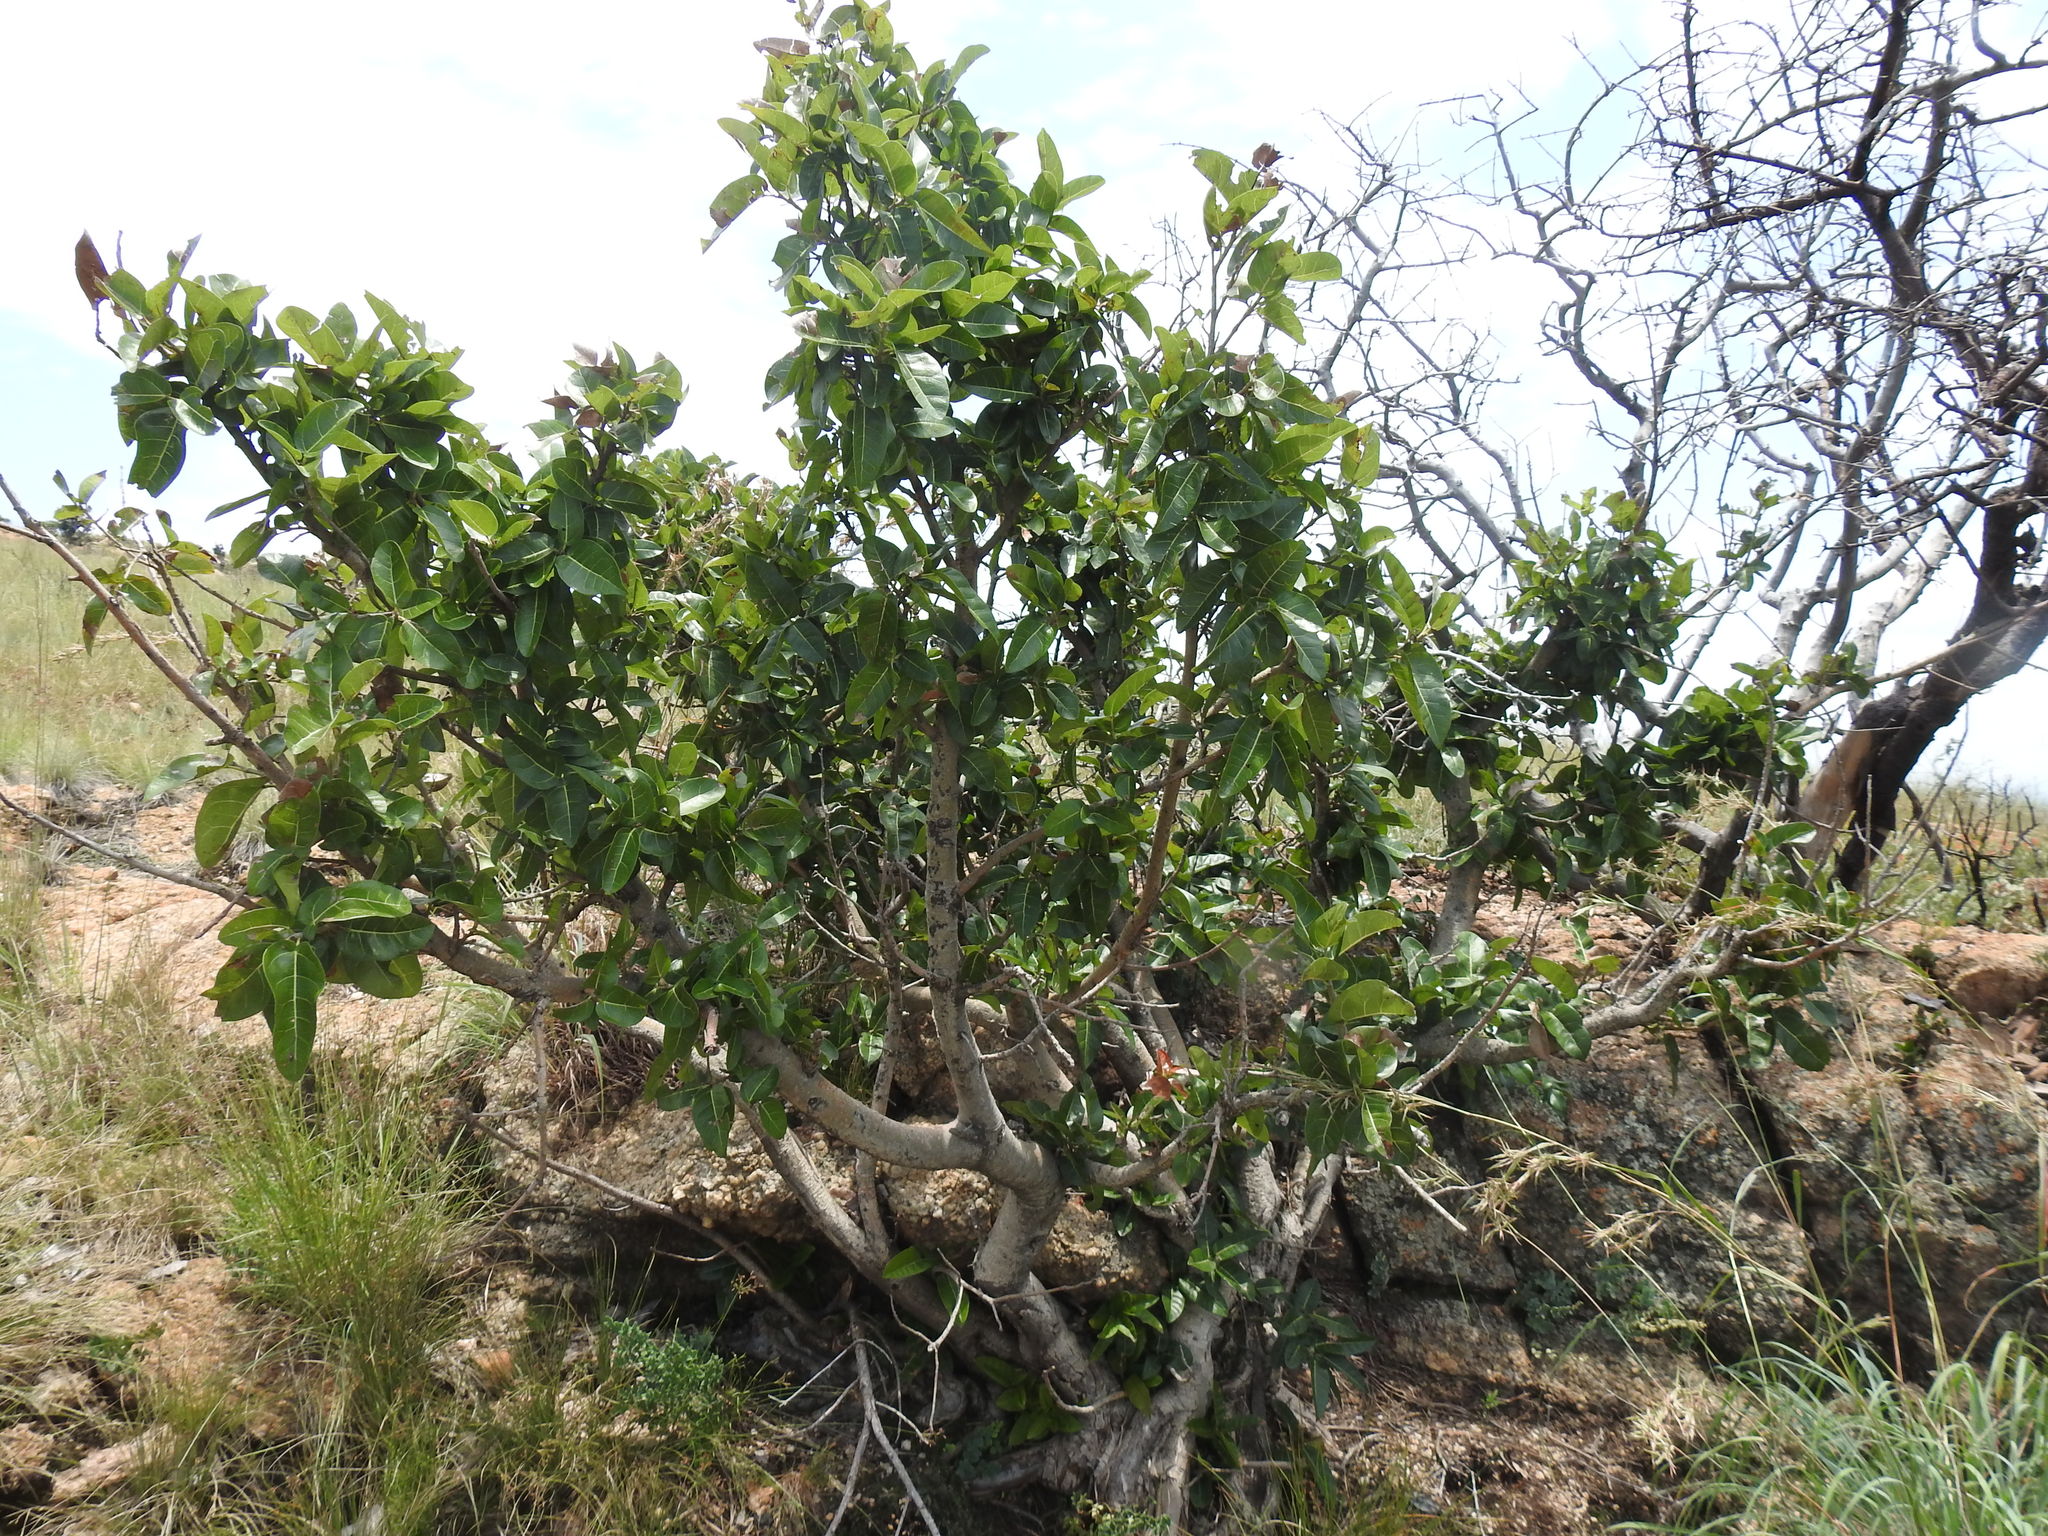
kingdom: Plantae
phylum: Tracheophyta
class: Magnoliopsida
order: Rosales
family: Moraceae
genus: Ficus
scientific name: Ficus ingens
